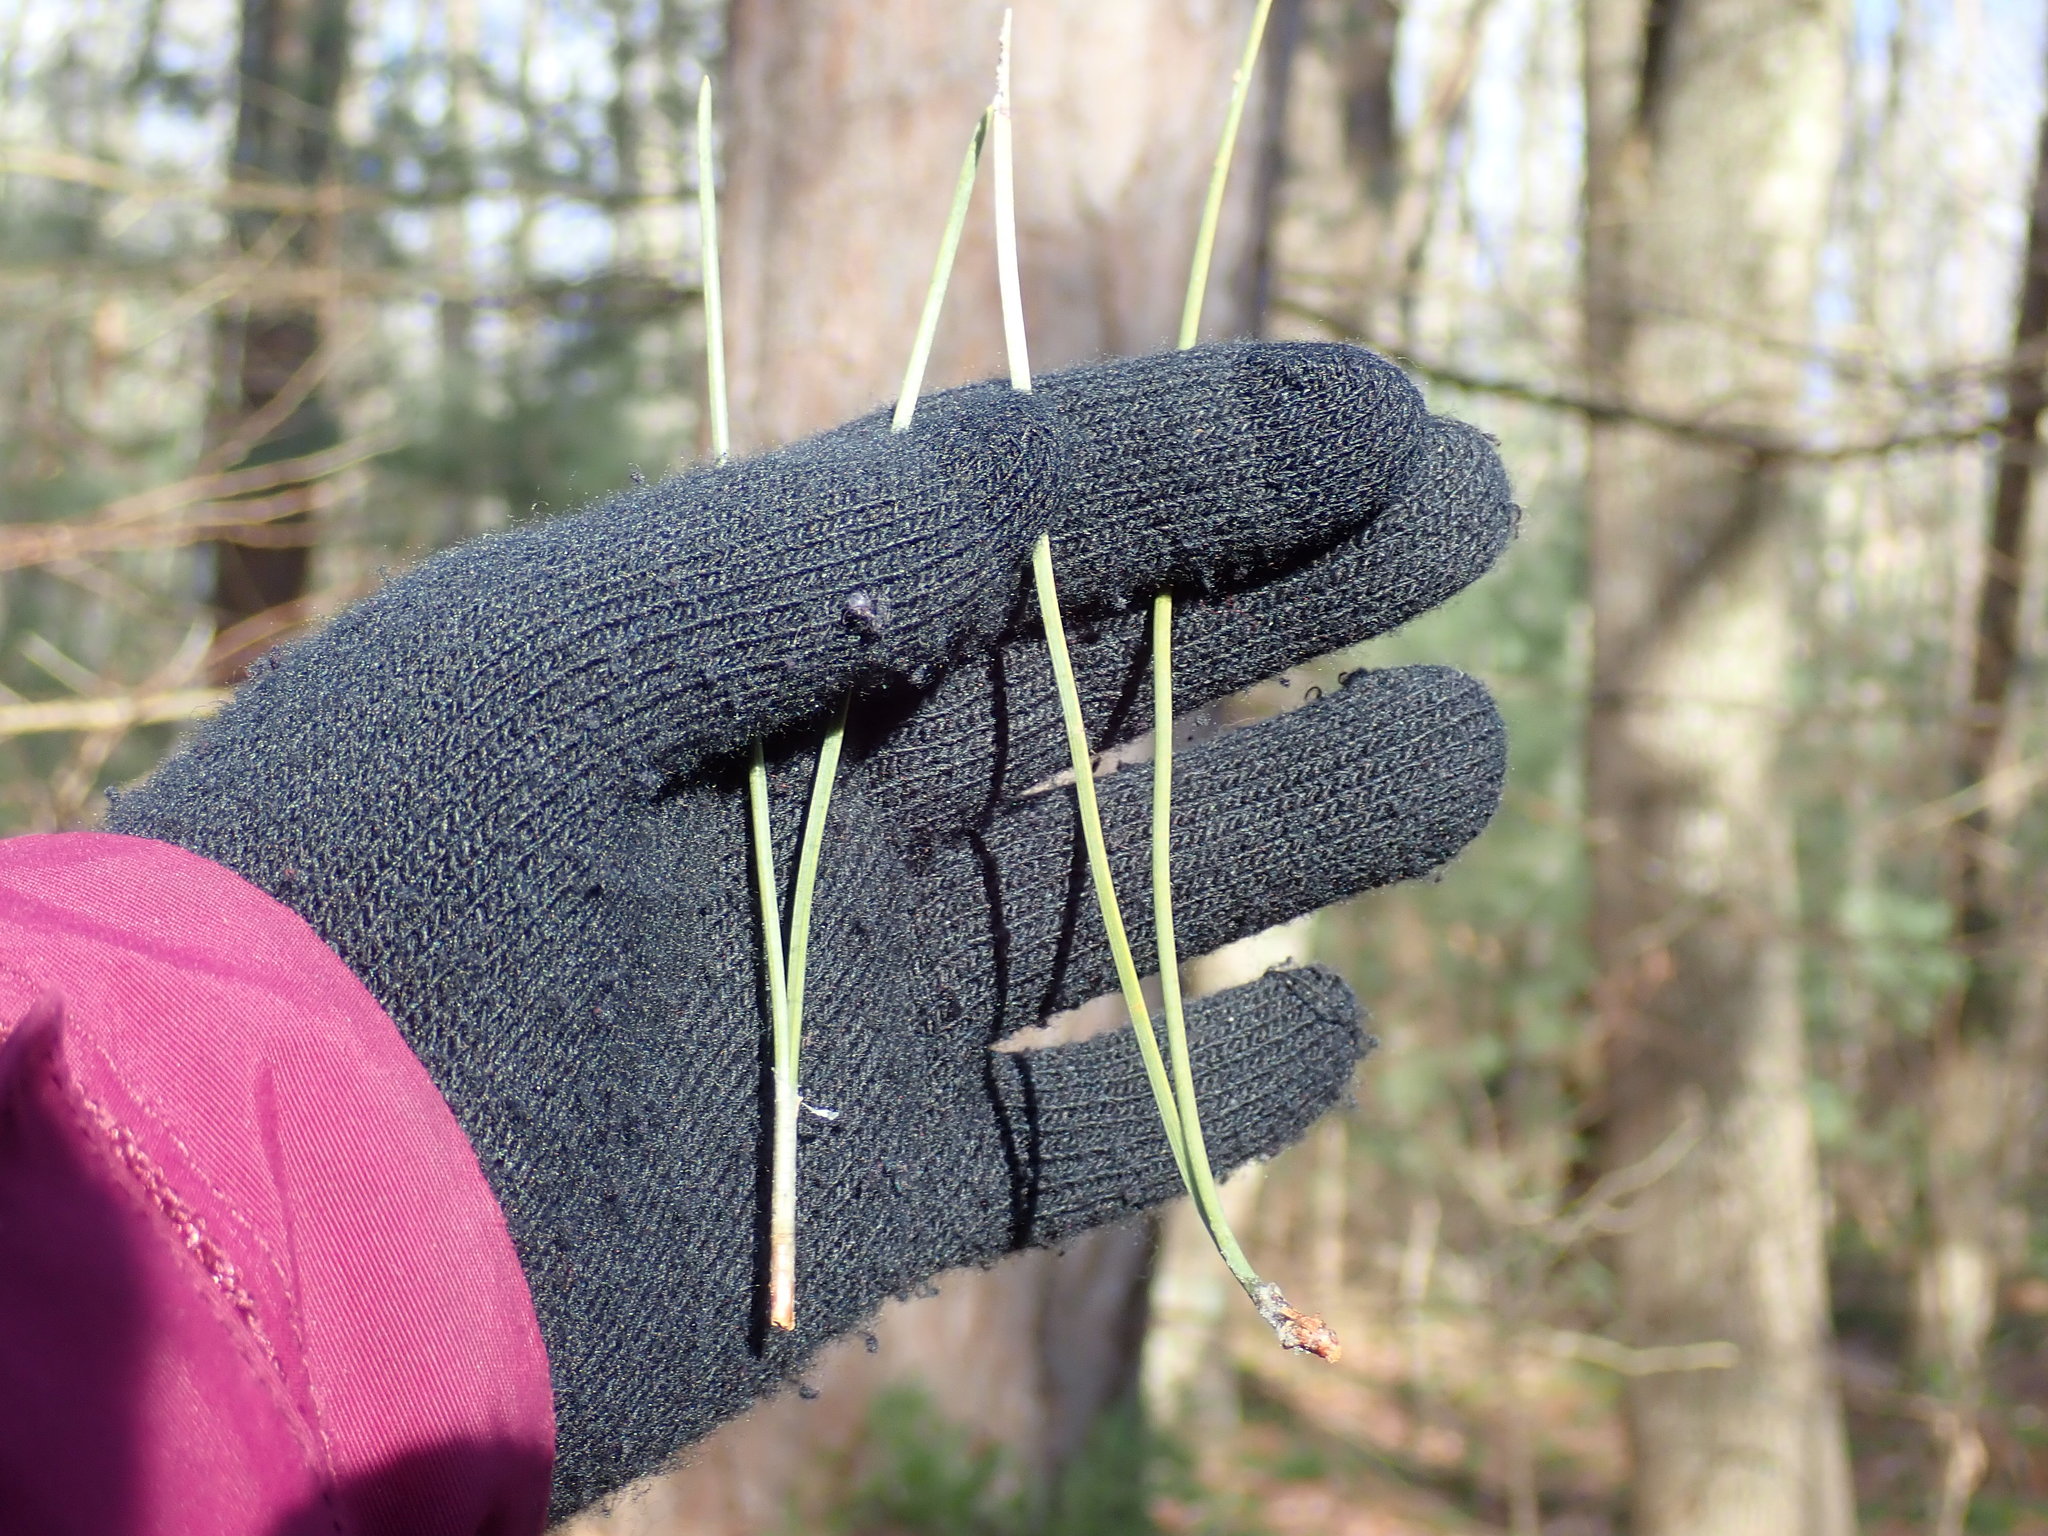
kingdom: Plantae
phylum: Tracheophyta
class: Pinopsida
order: Pinales
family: Pinaceae
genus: Pinus
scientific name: Pinus resinosa
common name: Norway pine
